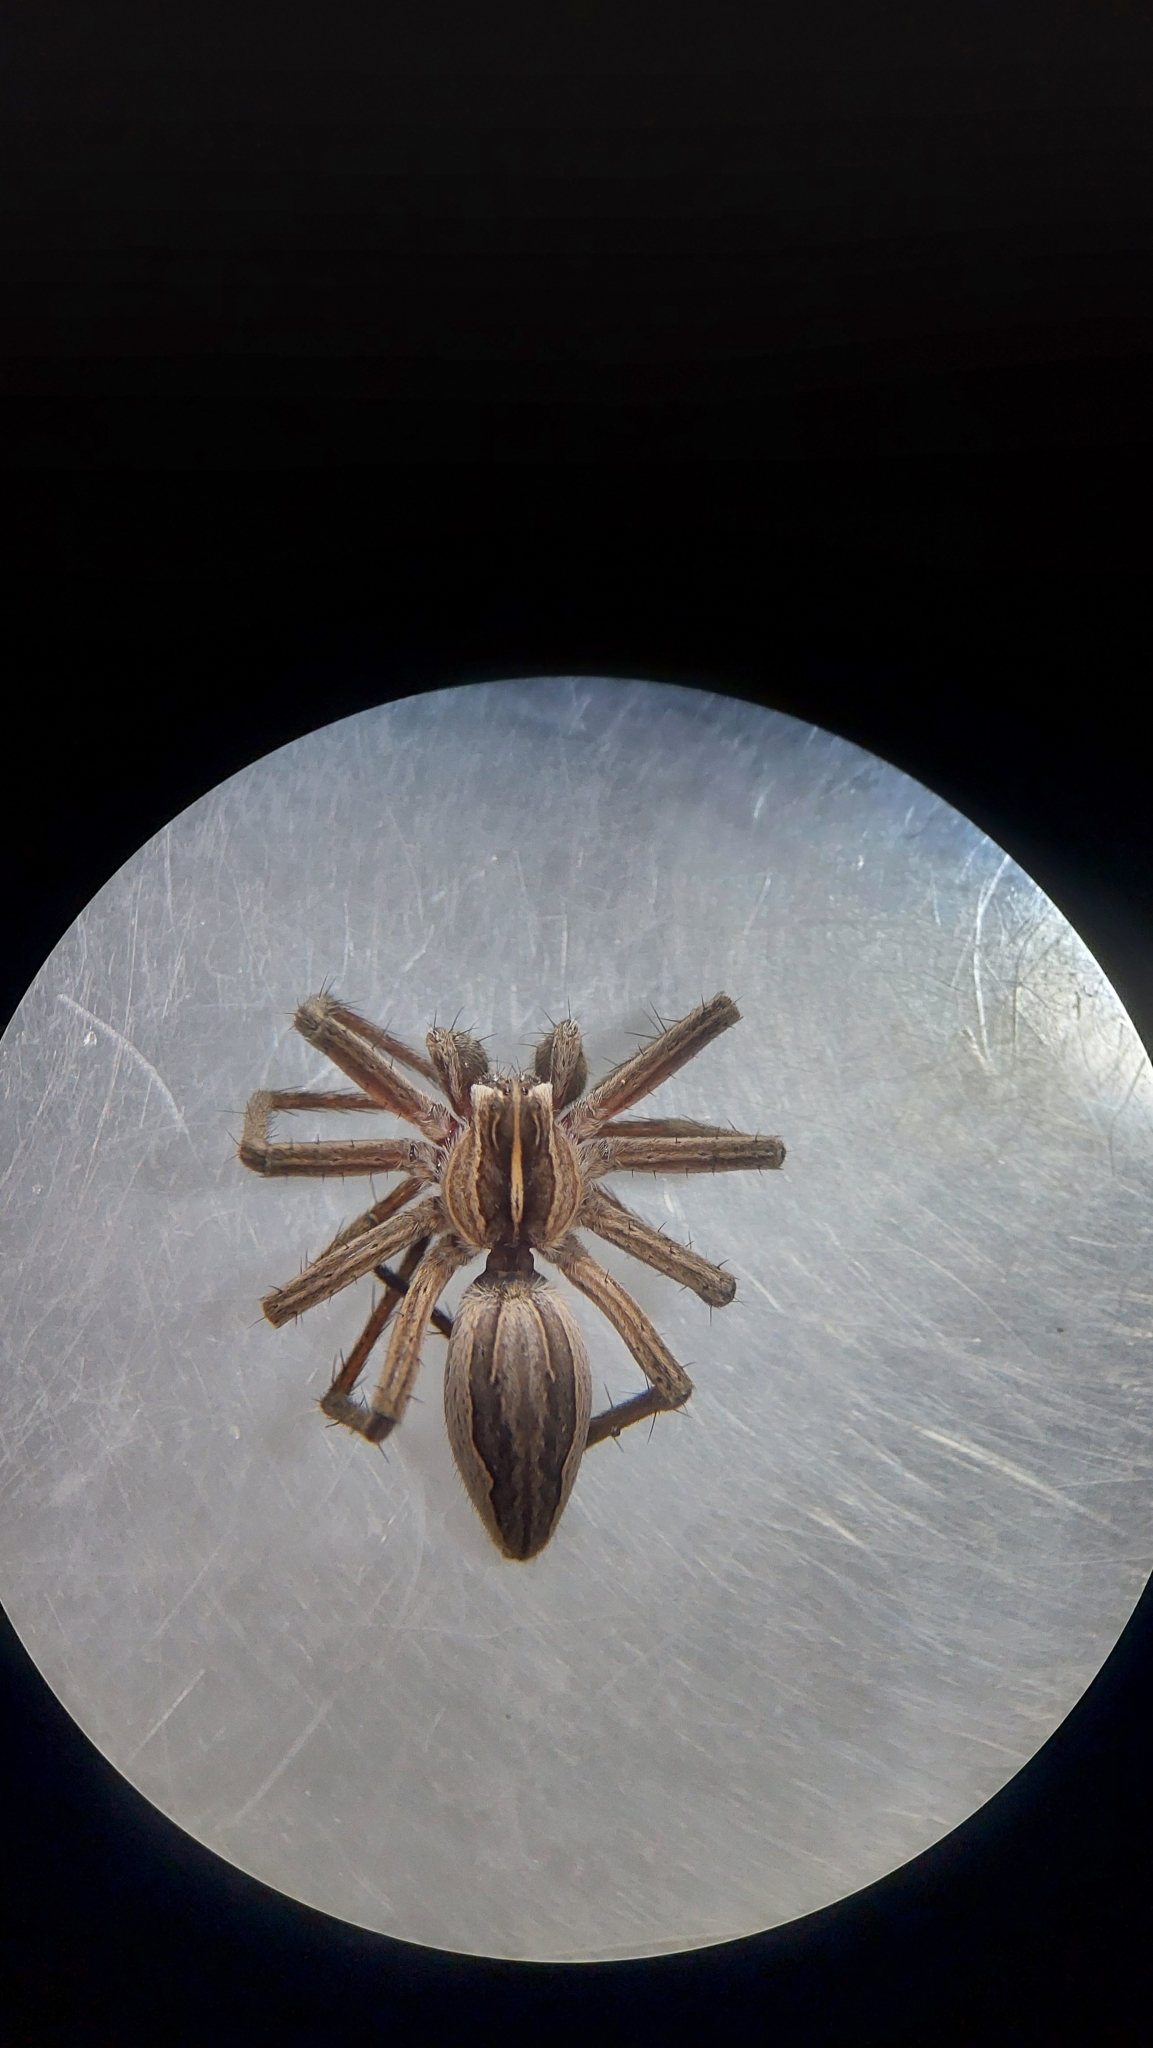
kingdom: Animalia
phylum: Arthropoda
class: Arachnida
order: Araneae
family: Pisauridae
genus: Pisaura
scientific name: Pisaura mirabilis
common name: Tent spider
